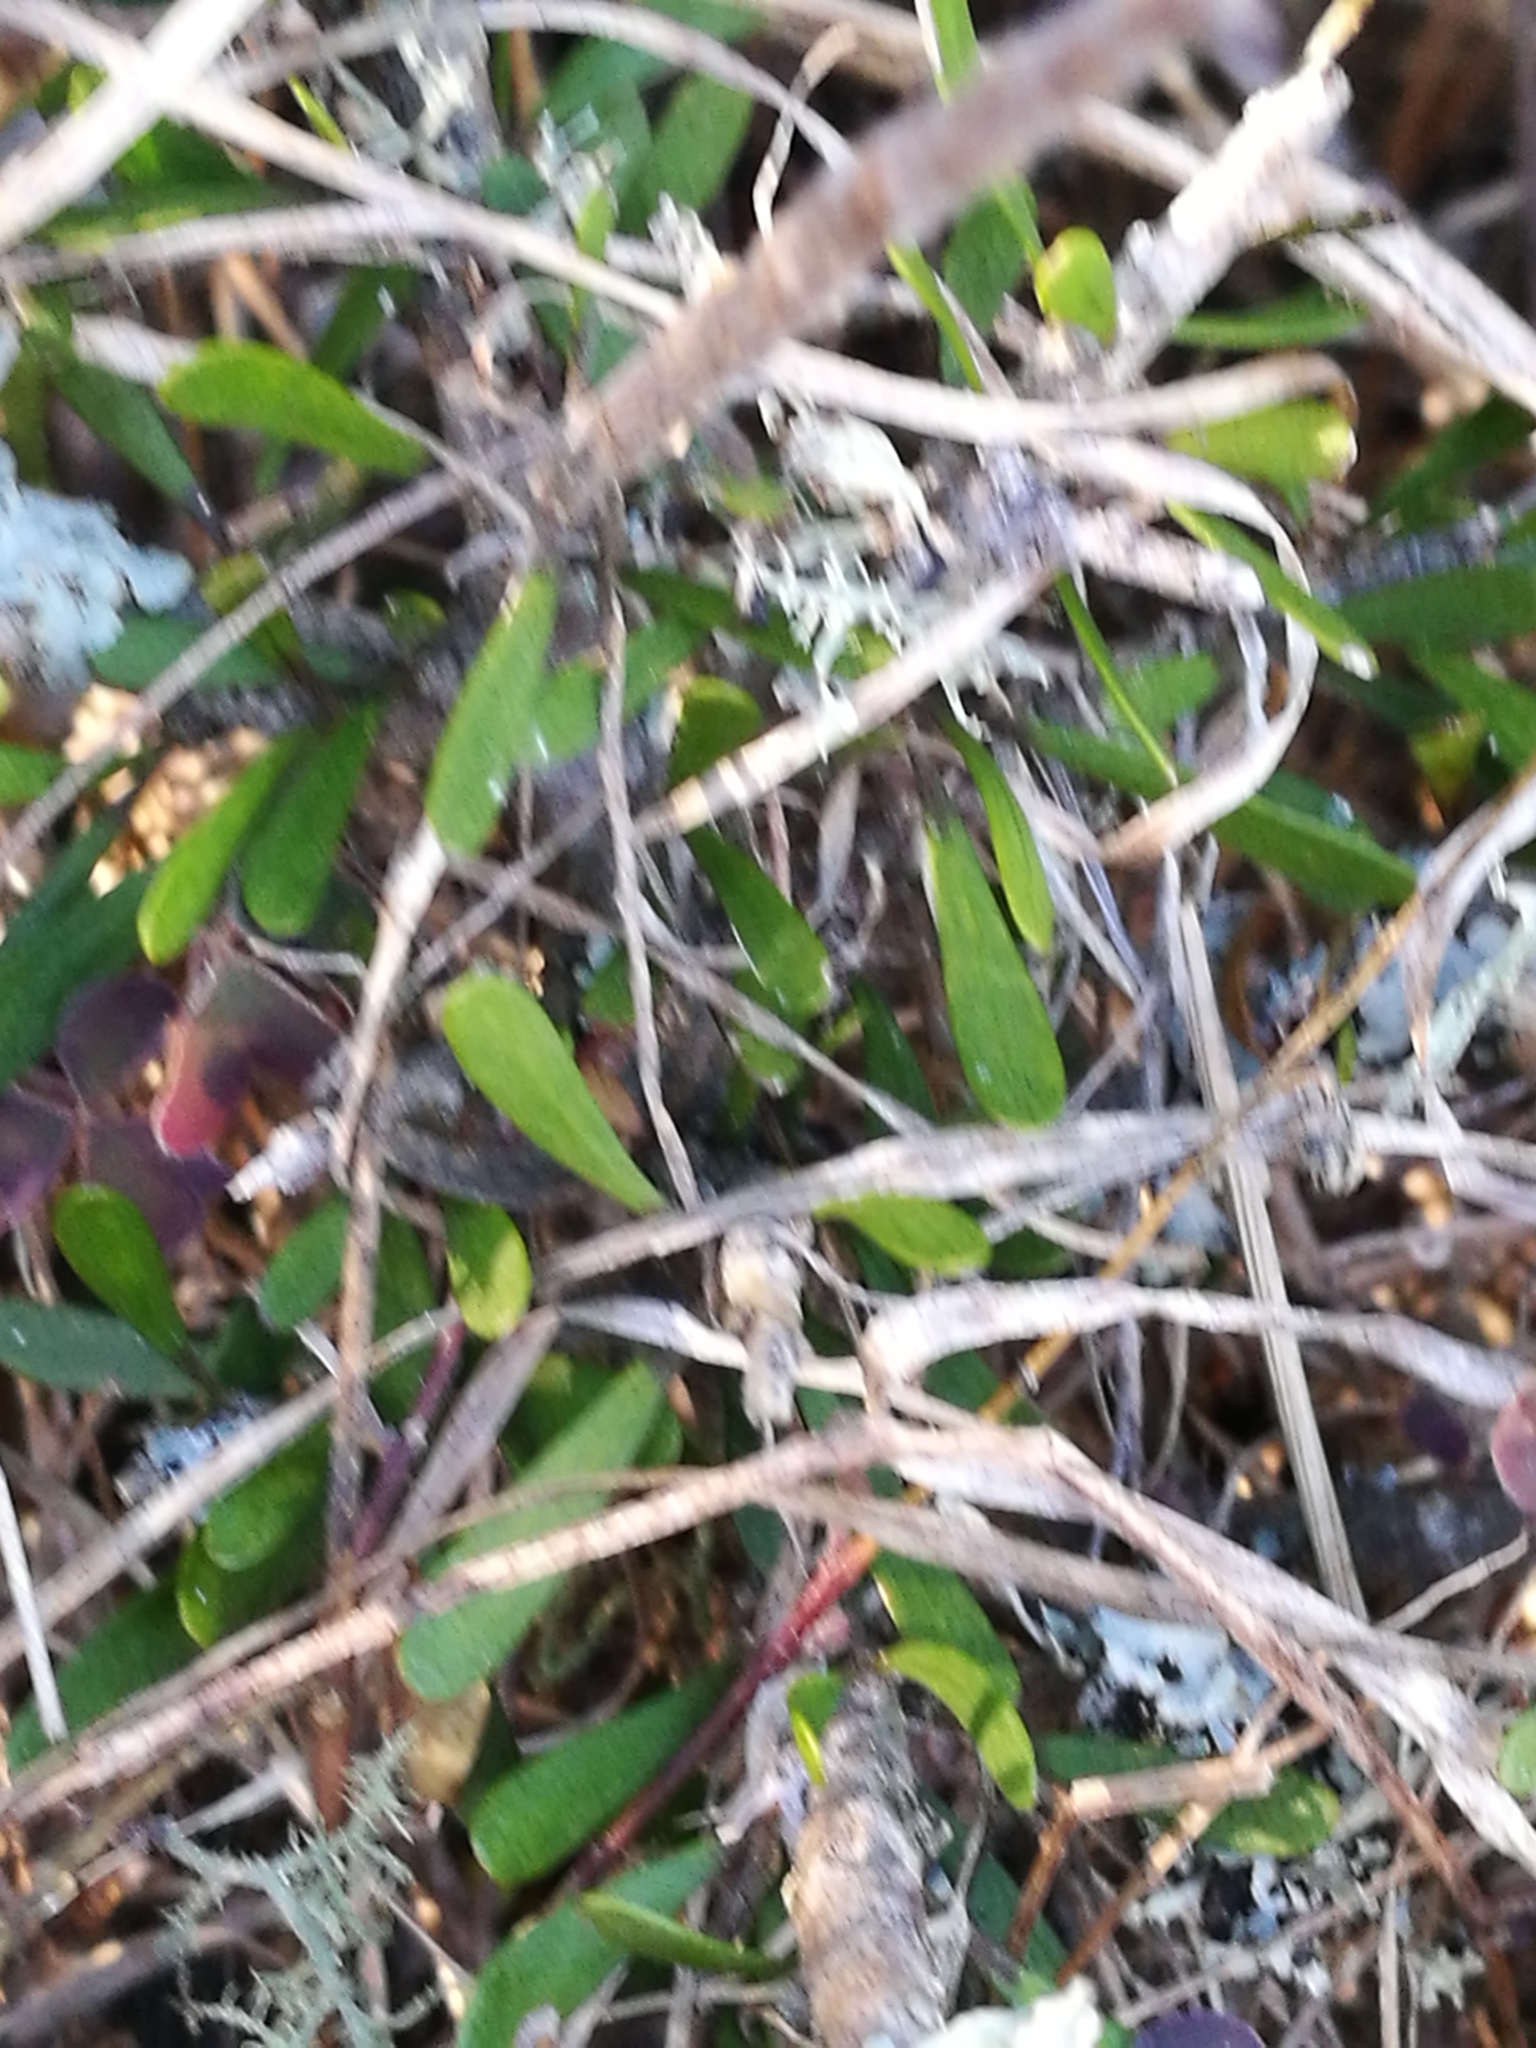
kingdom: Plantae
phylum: Tracheophyta
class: Magnoliopsida
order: Malpighiales
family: Violaceae
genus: Melicytus
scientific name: Melicytus alpinus
